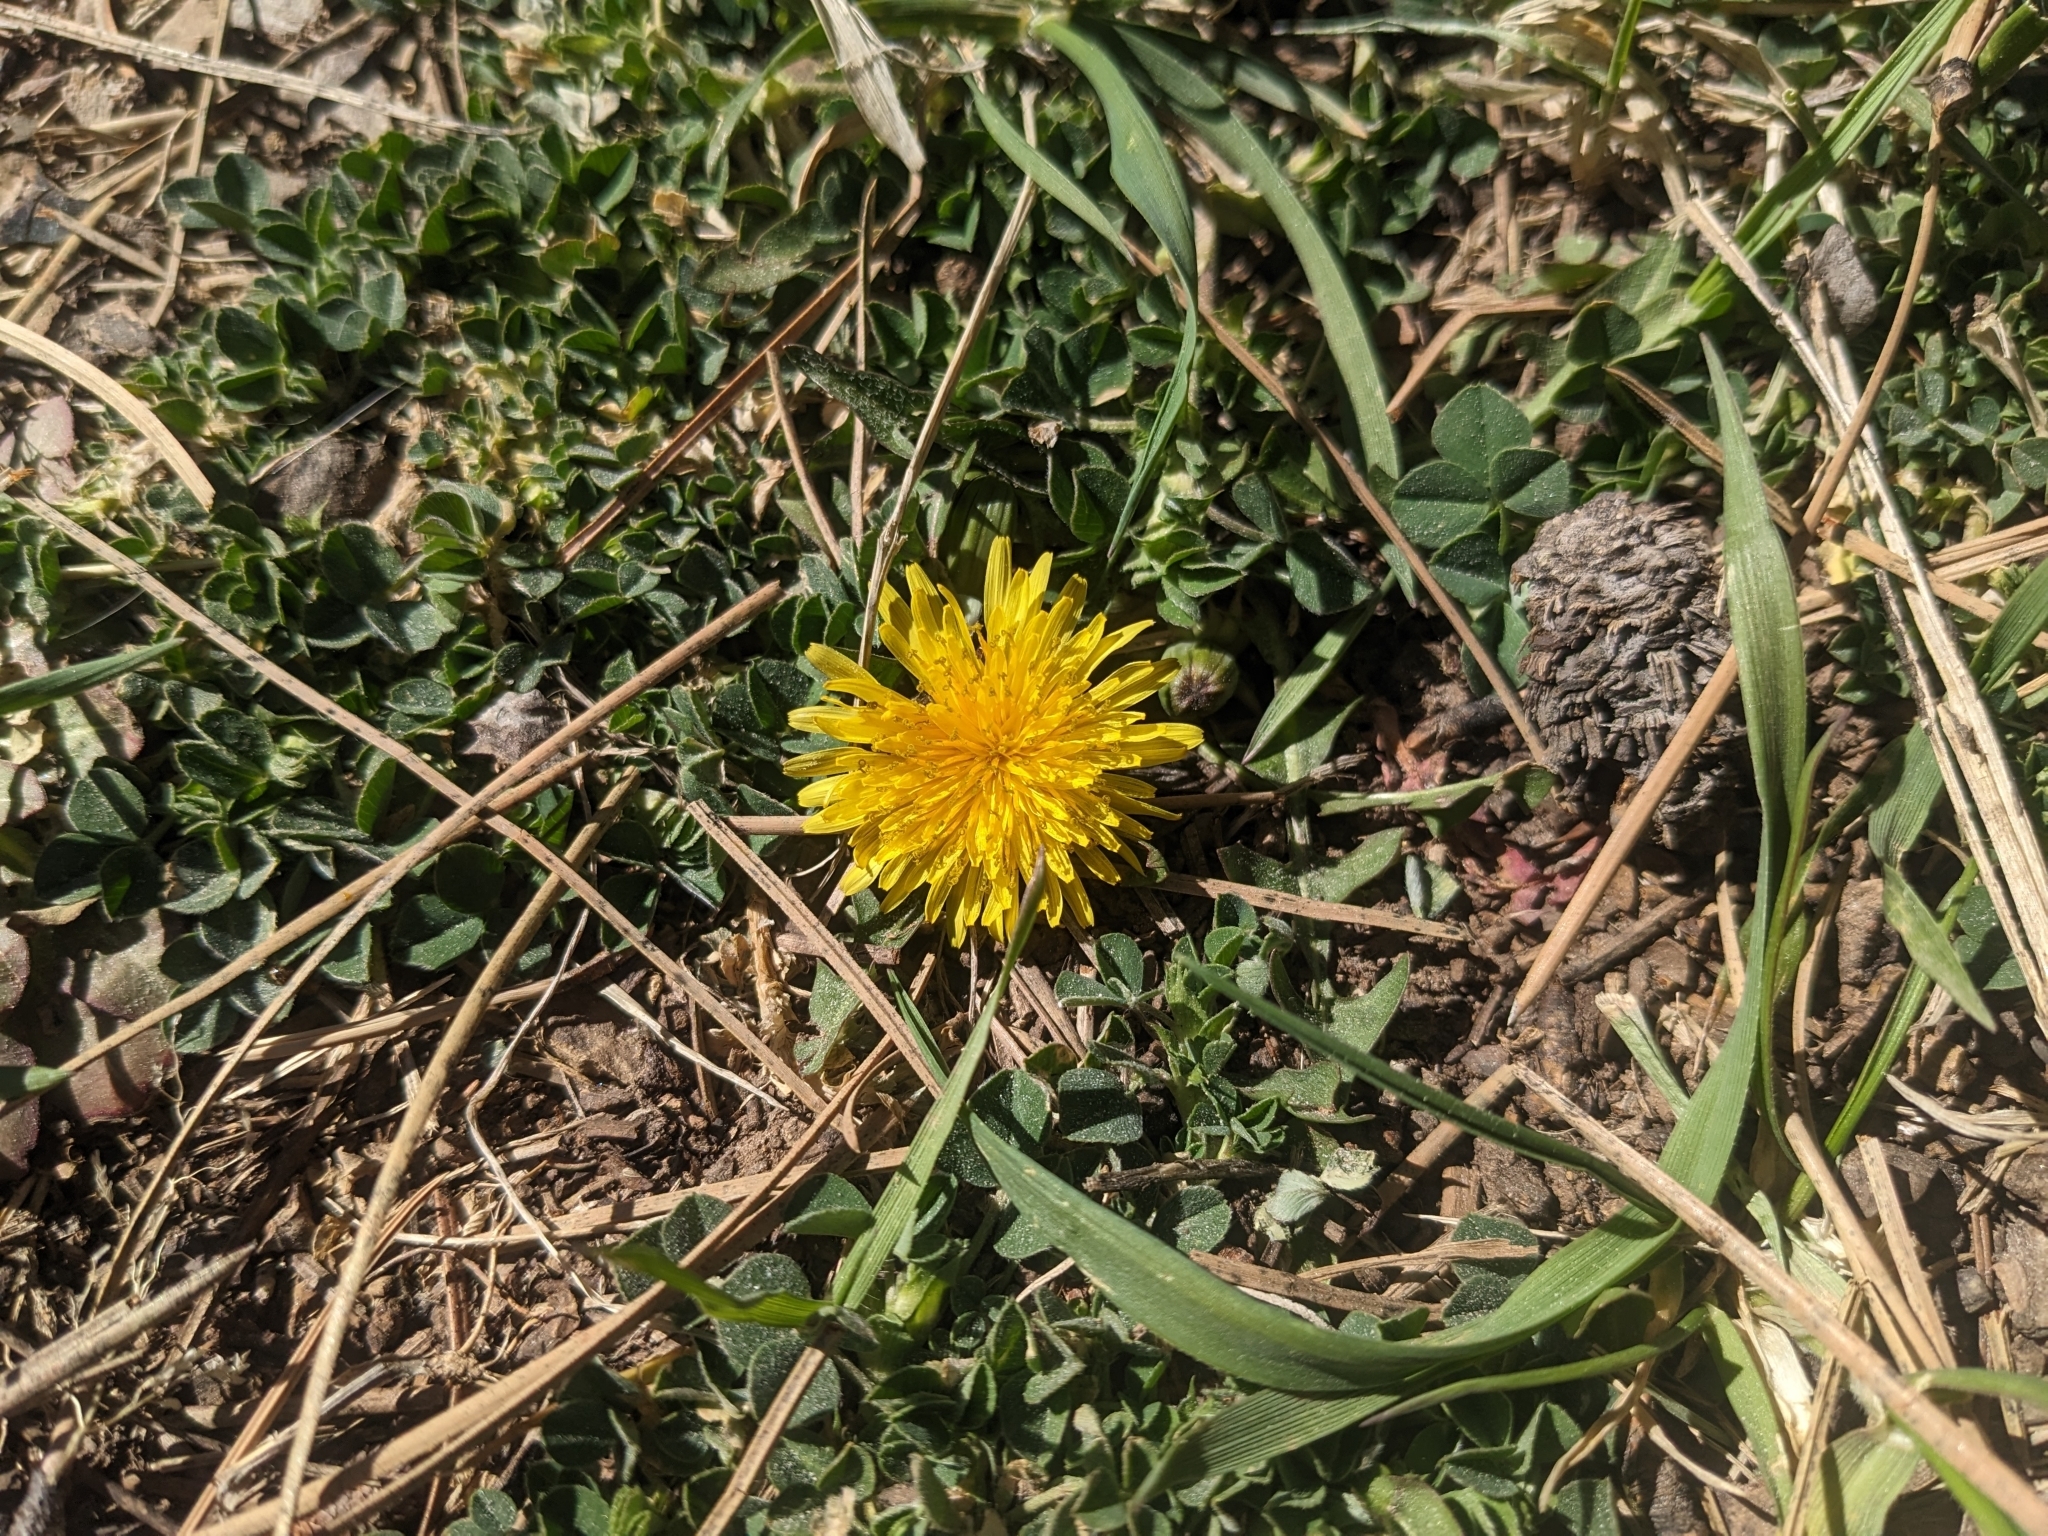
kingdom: Plantae
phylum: Tracheophyta
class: Magnoliopsida
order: Asterales
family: Asteraceae
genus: Taraxacum
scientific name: Taraxacum officinale
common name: Common dandelion
